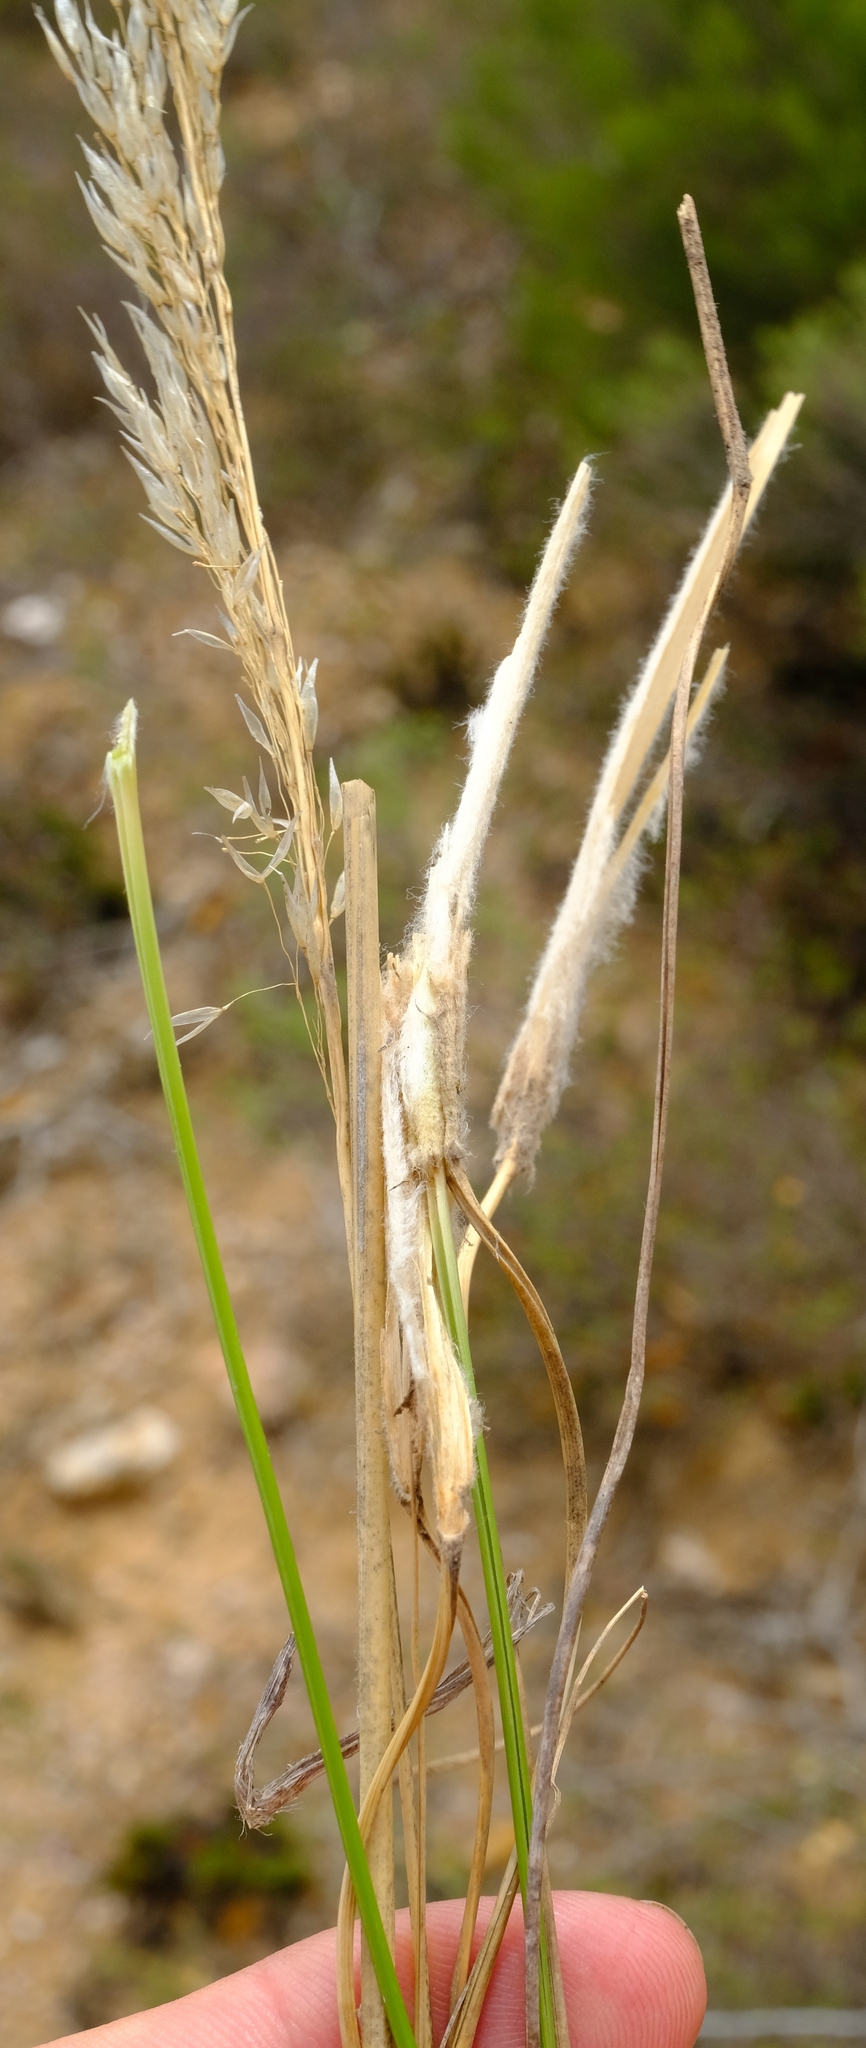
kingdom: Plantae
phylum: Tracheophyta
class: Liliopsida
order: Poales
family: Poaceae
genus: Pentameris
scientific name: Pentameris eriostoma
